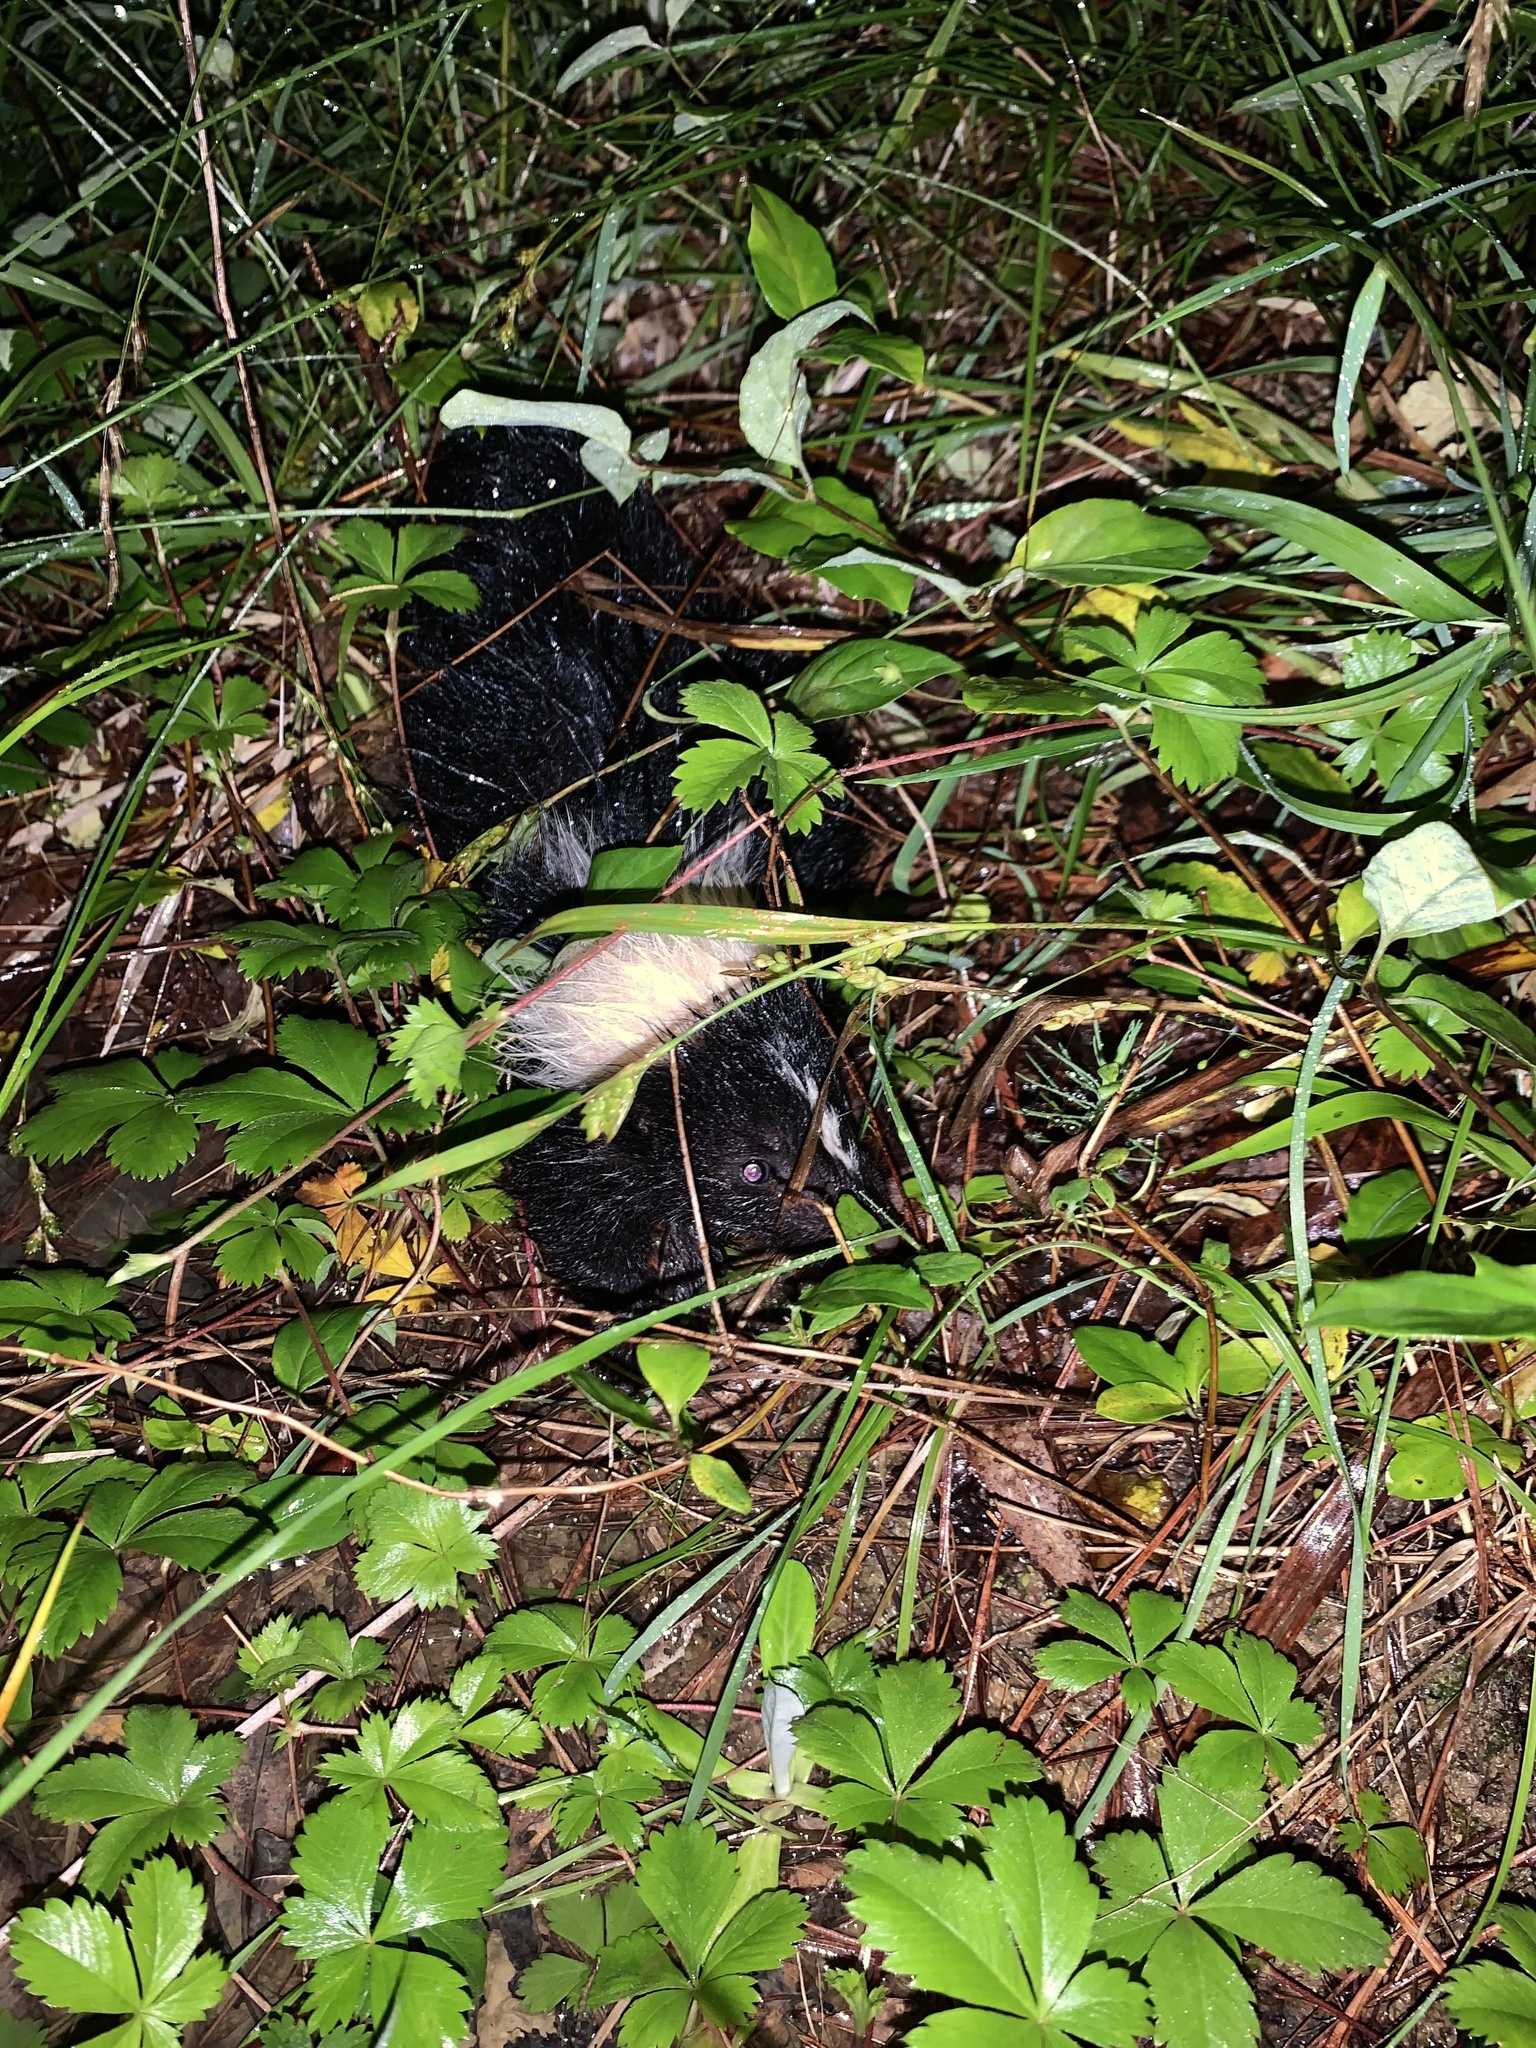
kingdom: Animalia
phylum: Chordata
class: Mammalia
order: Carnivora
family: Mephitidae
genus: Mephitis
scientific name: Mephitis mephitis
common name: Striped skunk
